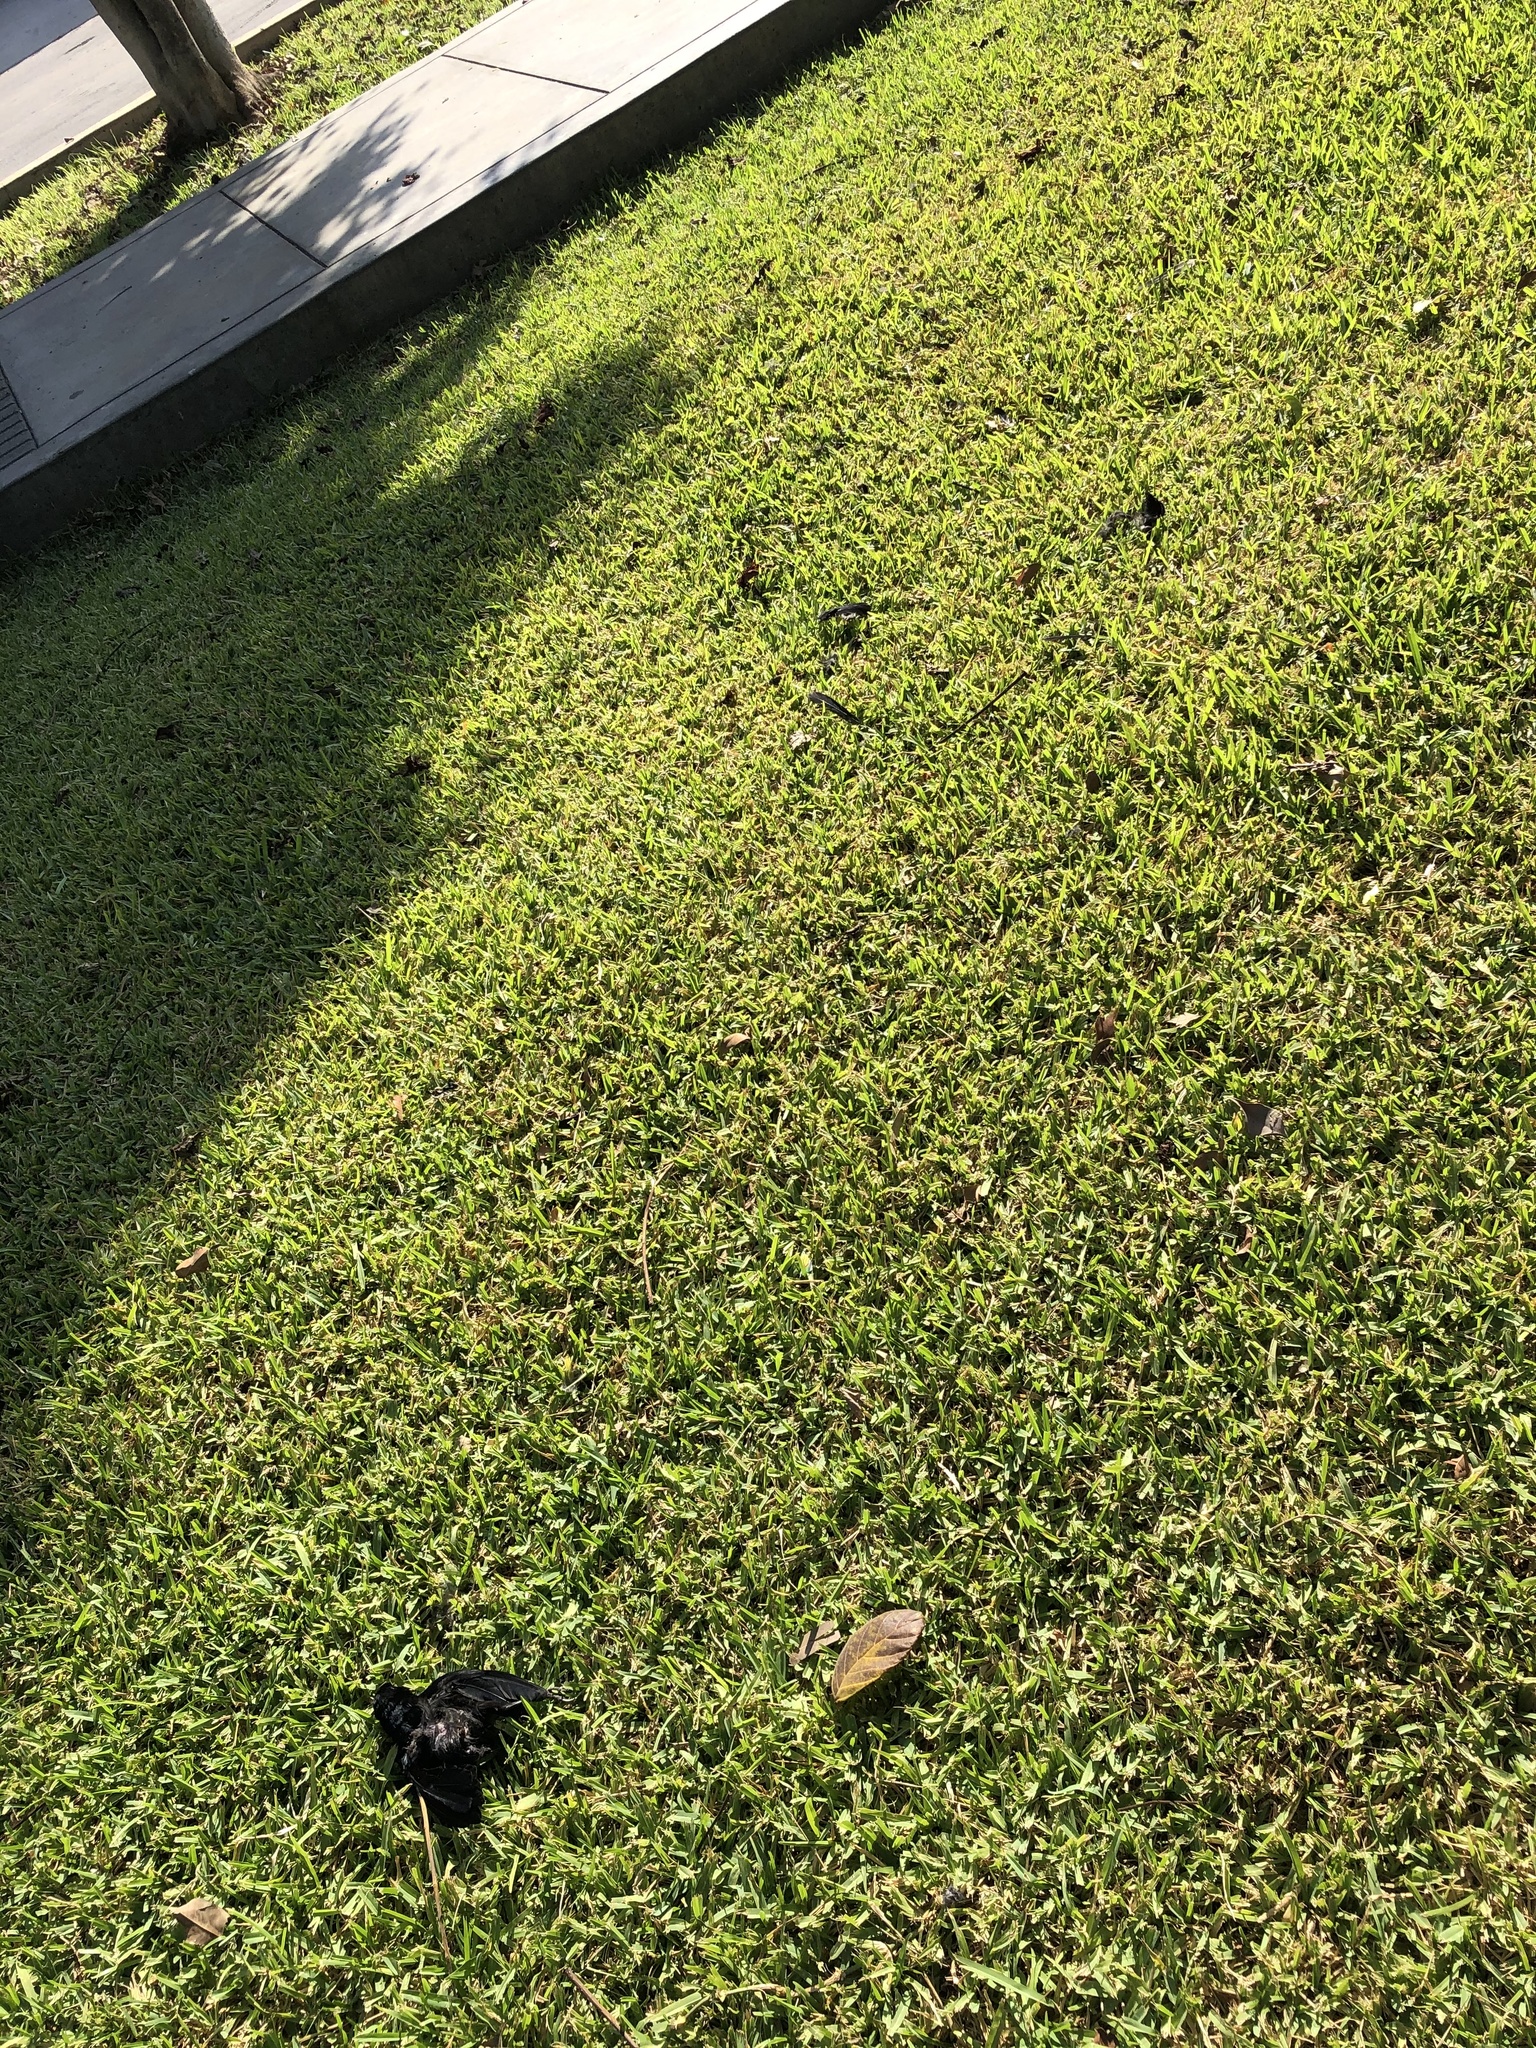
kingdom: Animalia
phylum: Chordata
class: Aves
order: Passeriformes
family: Icteridae
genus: Molothrus
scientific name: Molothrus bonariensis
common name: Shiny cowbird
